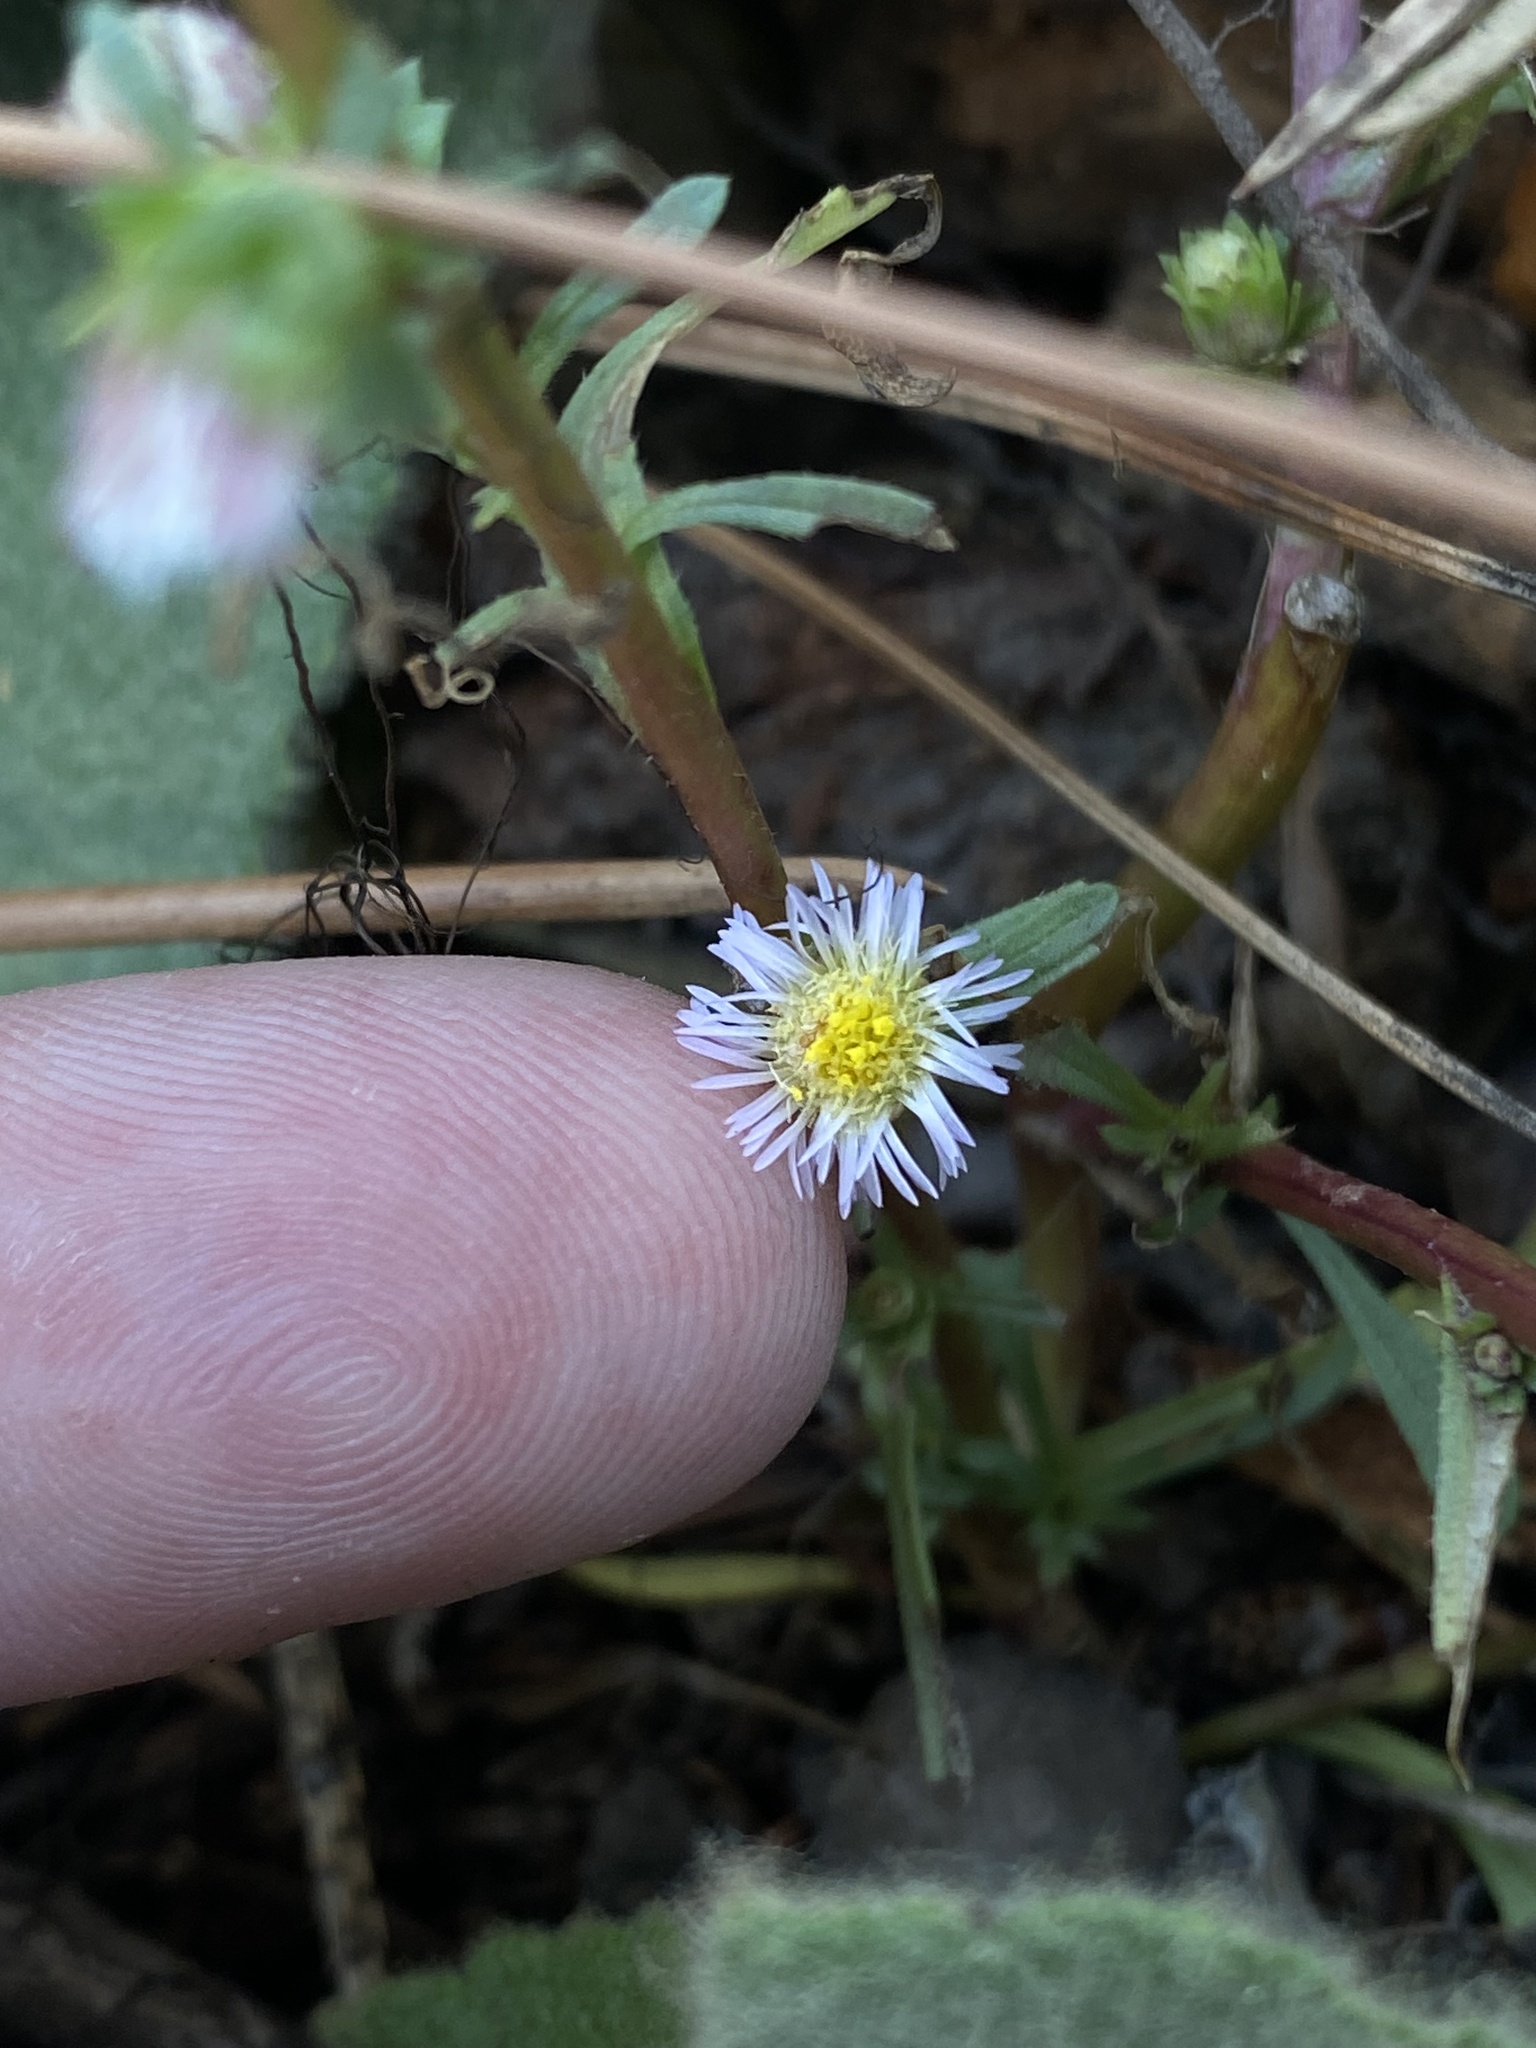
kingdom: Plantae
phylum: Tracheophyta
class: Magnoliopsida
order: Asterales
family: Asteraceae
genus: Symphyotrichum
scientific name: Symphyotrichum frondosum
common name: Leafy aster
